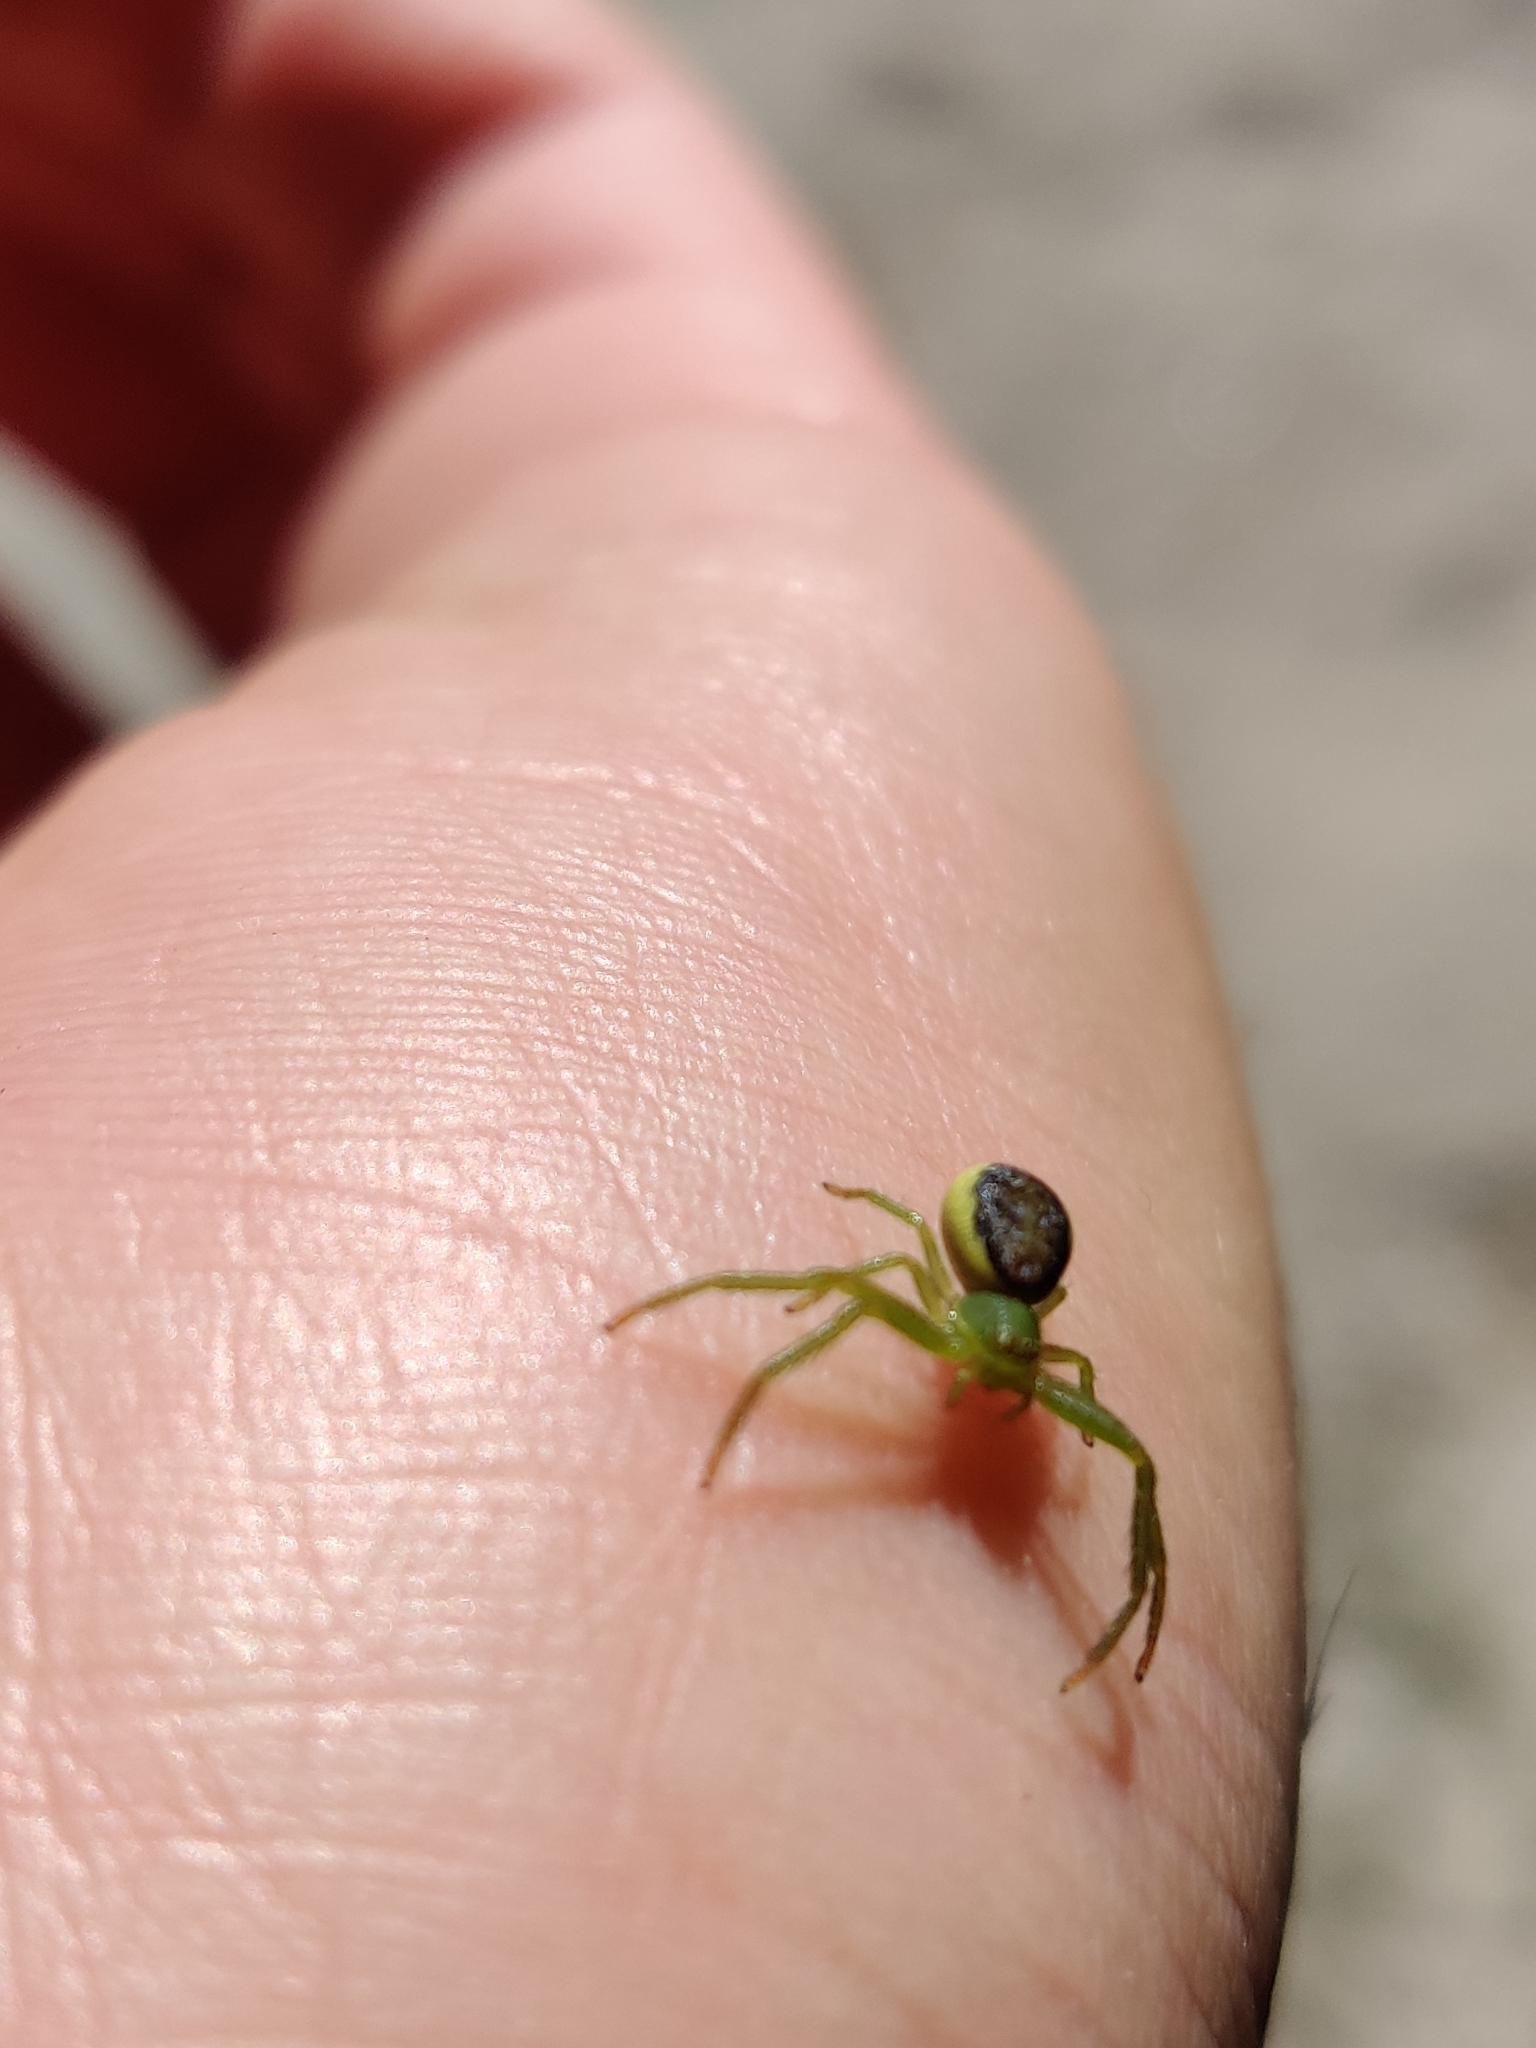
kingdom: Animalia
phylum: Arthropoda
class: Arachnida
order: Araneae
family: Thomisidae
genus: Diaea
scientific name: Diaea dorsata
